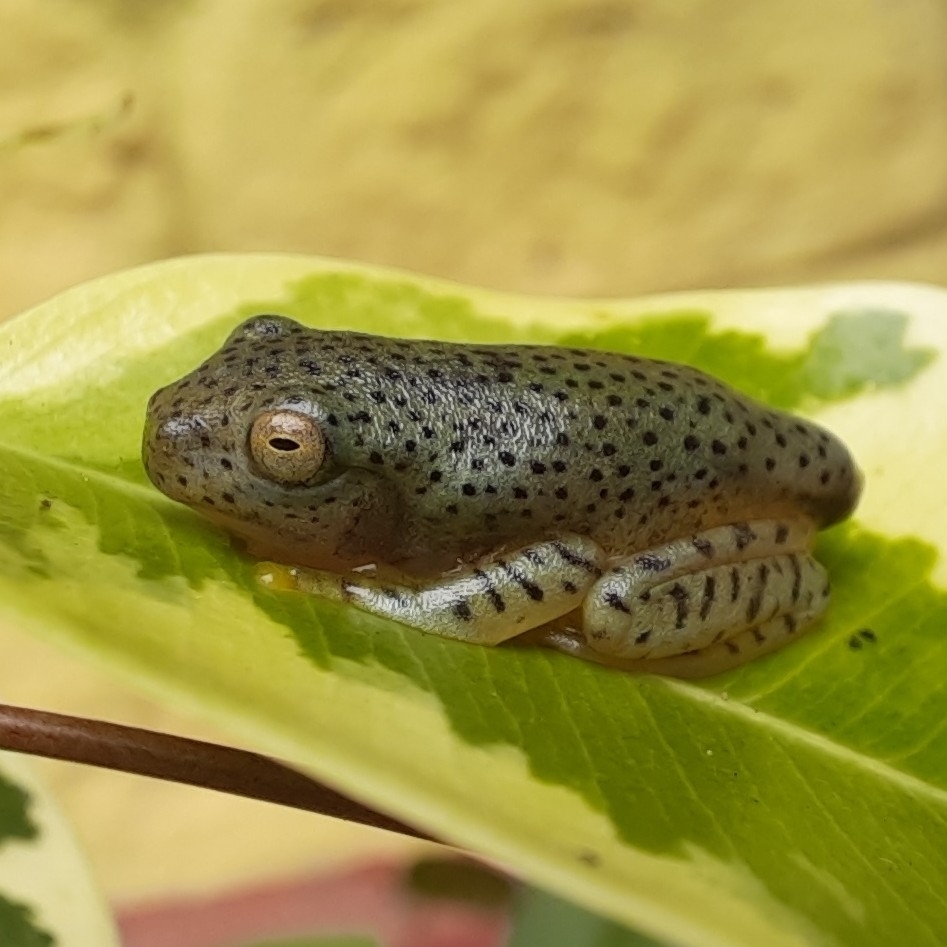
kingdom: Animalia
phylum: Chordata
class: Amphibia
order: Anura
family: Rhacophoridae
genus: Rhacophorus
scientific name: Rhacophorus malabaricus
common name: Malabar gliding frog
